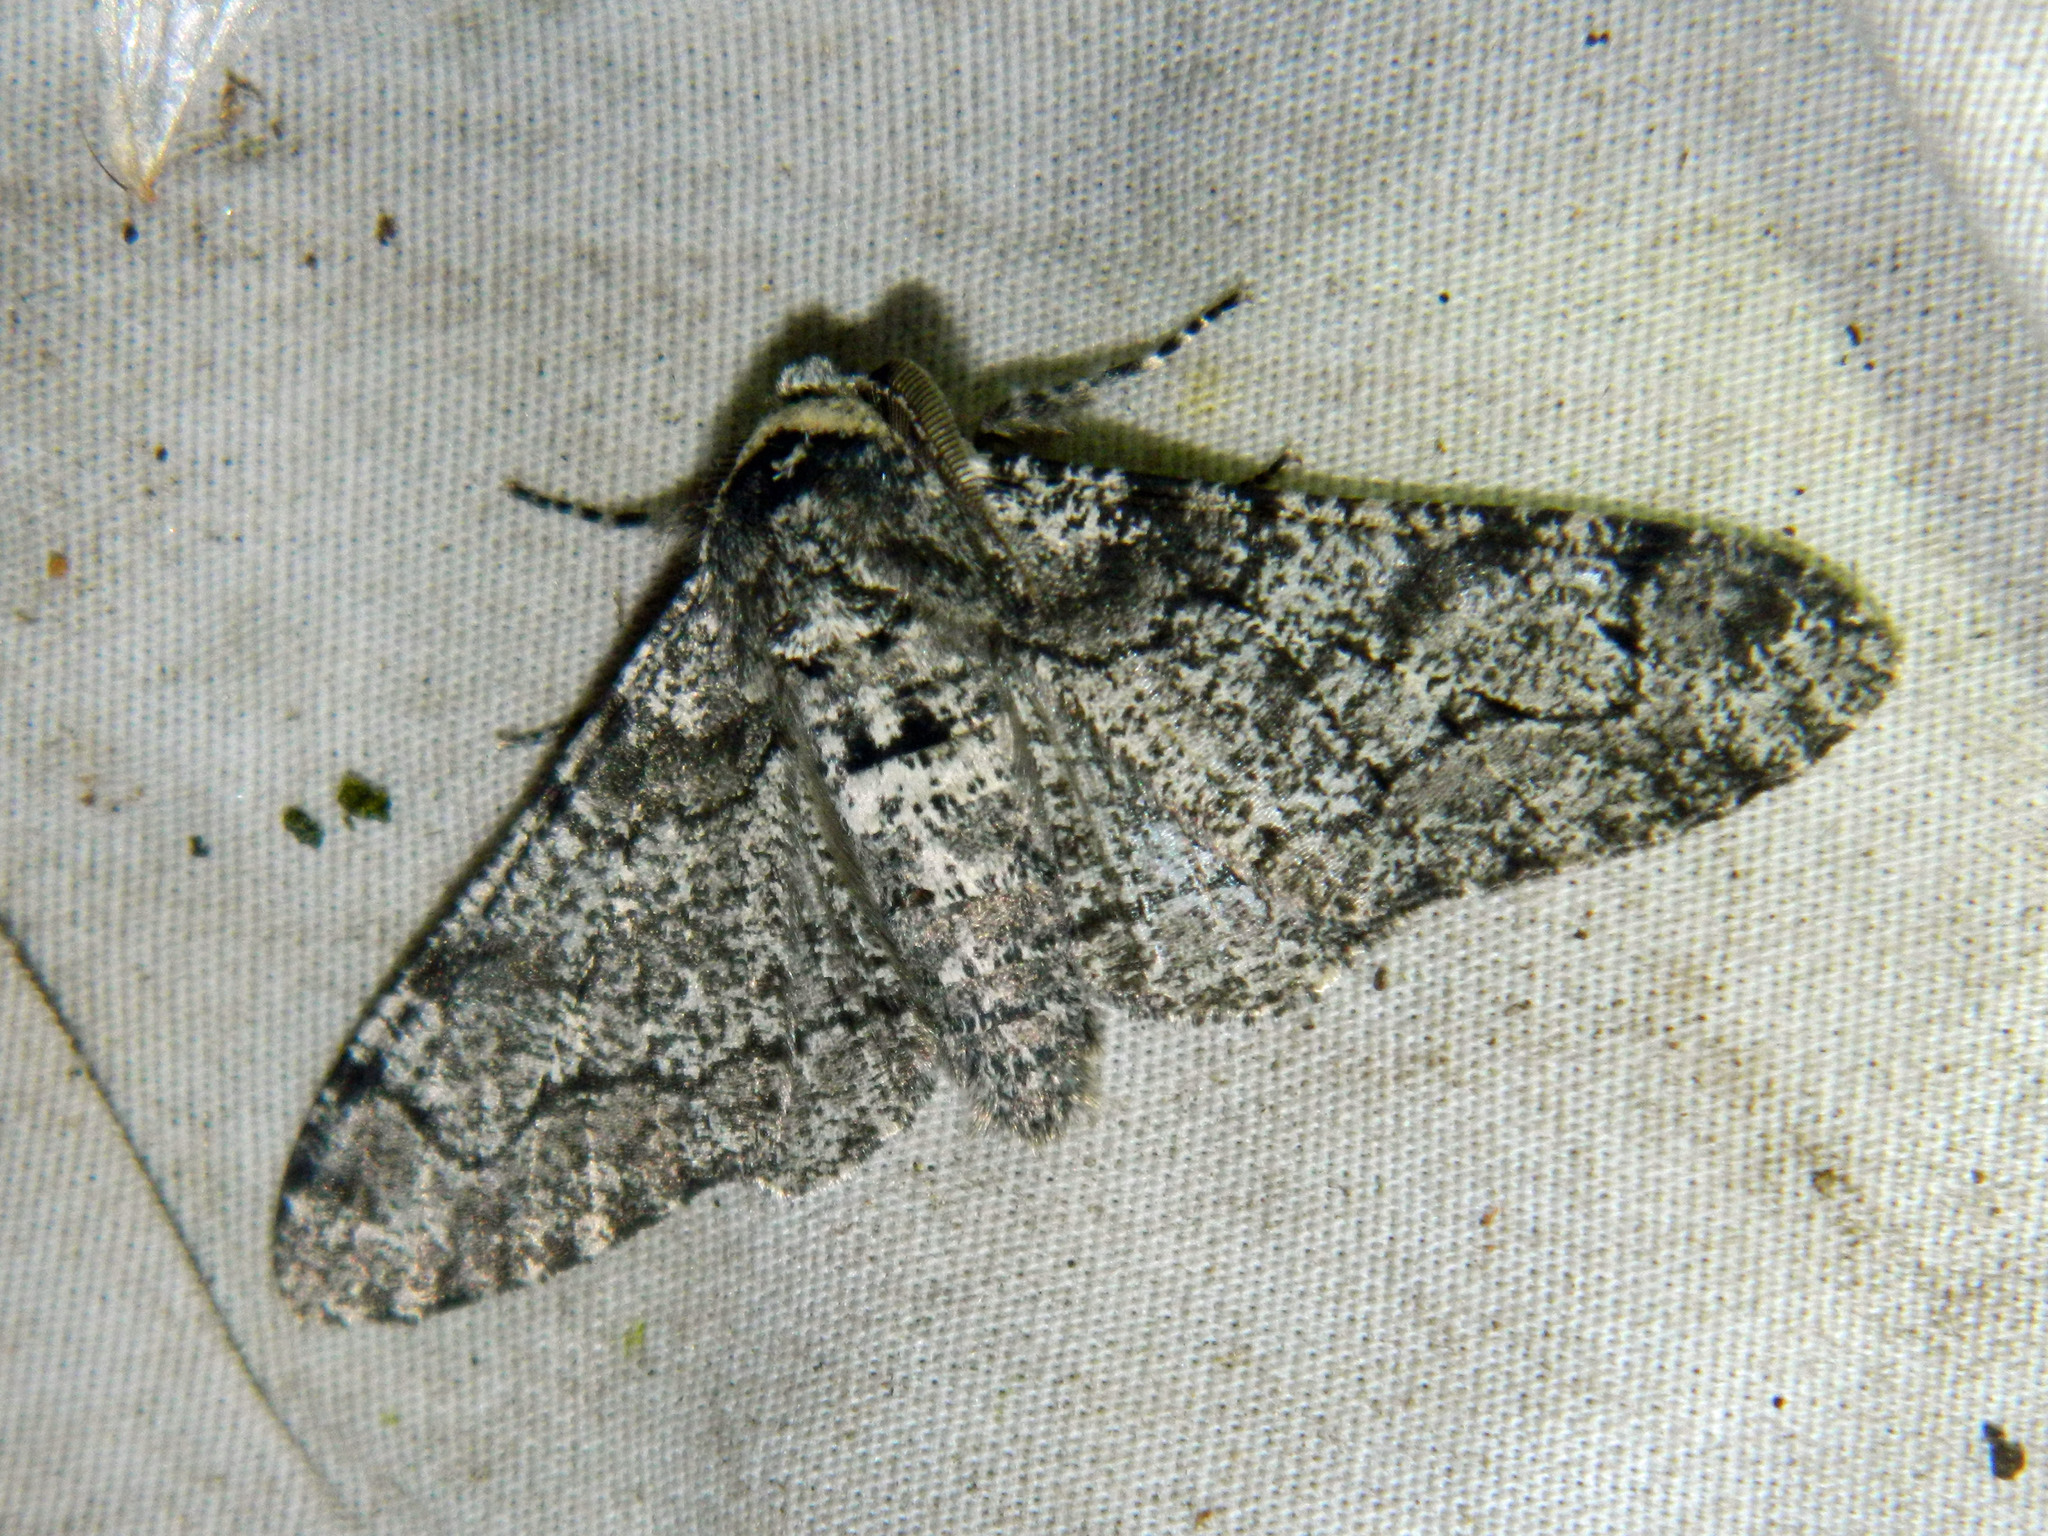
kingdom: Animalia
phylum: Arthropoda
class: Insecta
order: Lepidoptera
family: Geometridae
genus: Biston
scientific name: Biston betularia
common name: Peppered moth
